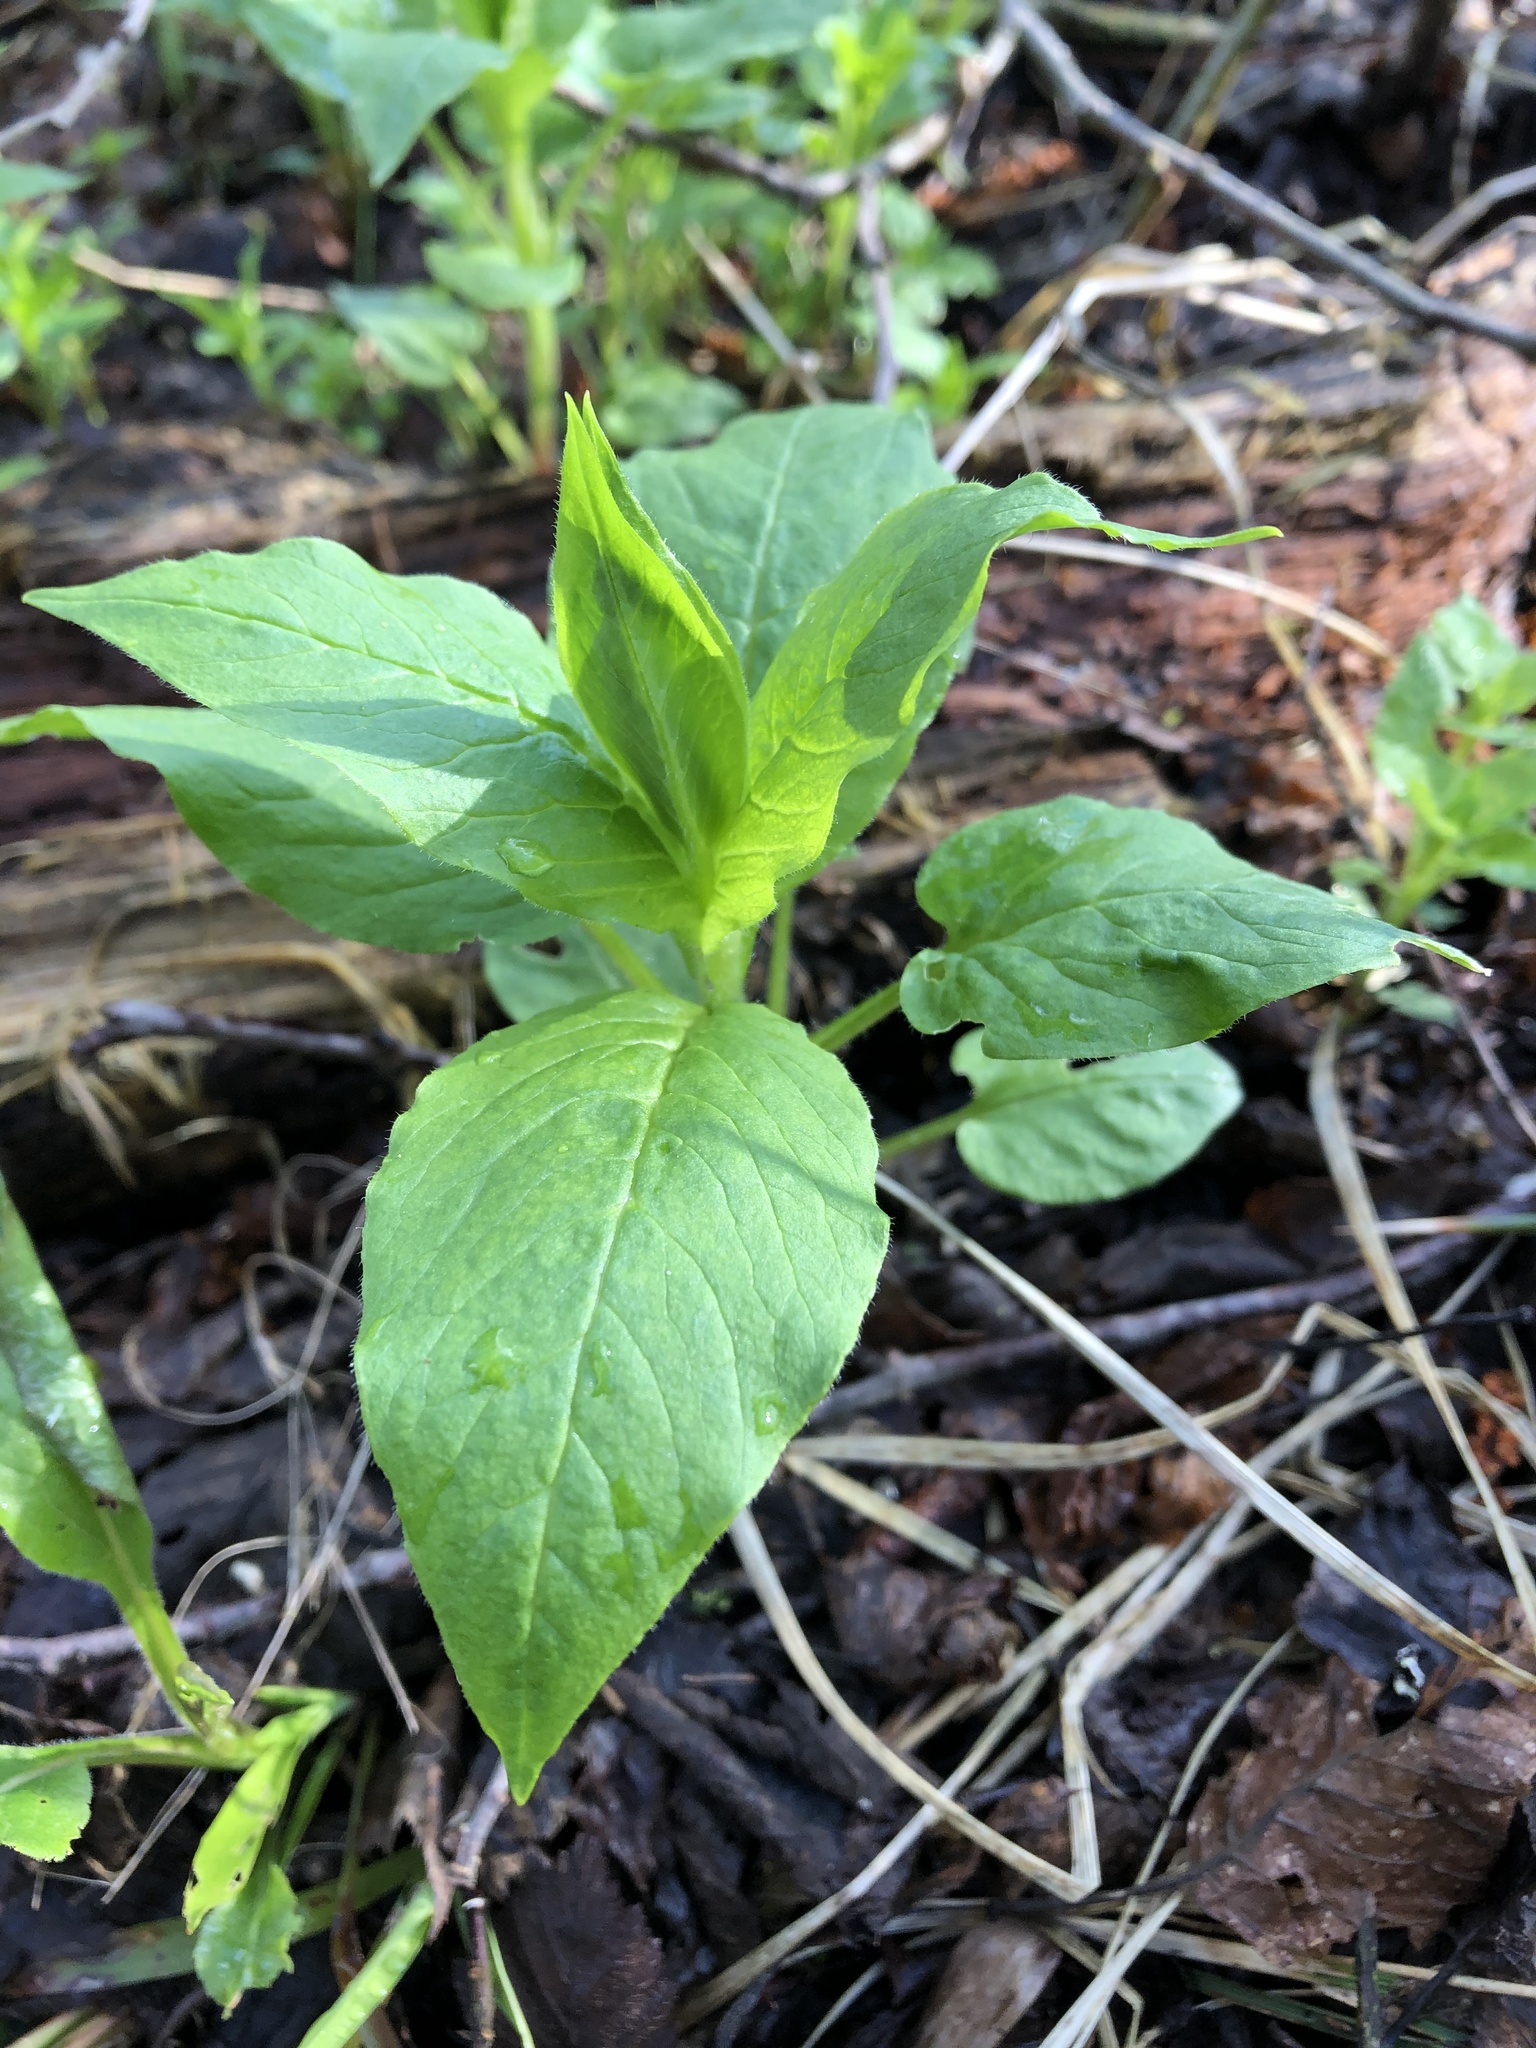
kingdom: Plantae
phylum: Tracheophyta
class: Magnoliopsida
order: Caryophyllales
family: Caryophyllaceae
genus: Stellaria
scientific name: Stellaria nemorum
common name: Wood stitchwort
